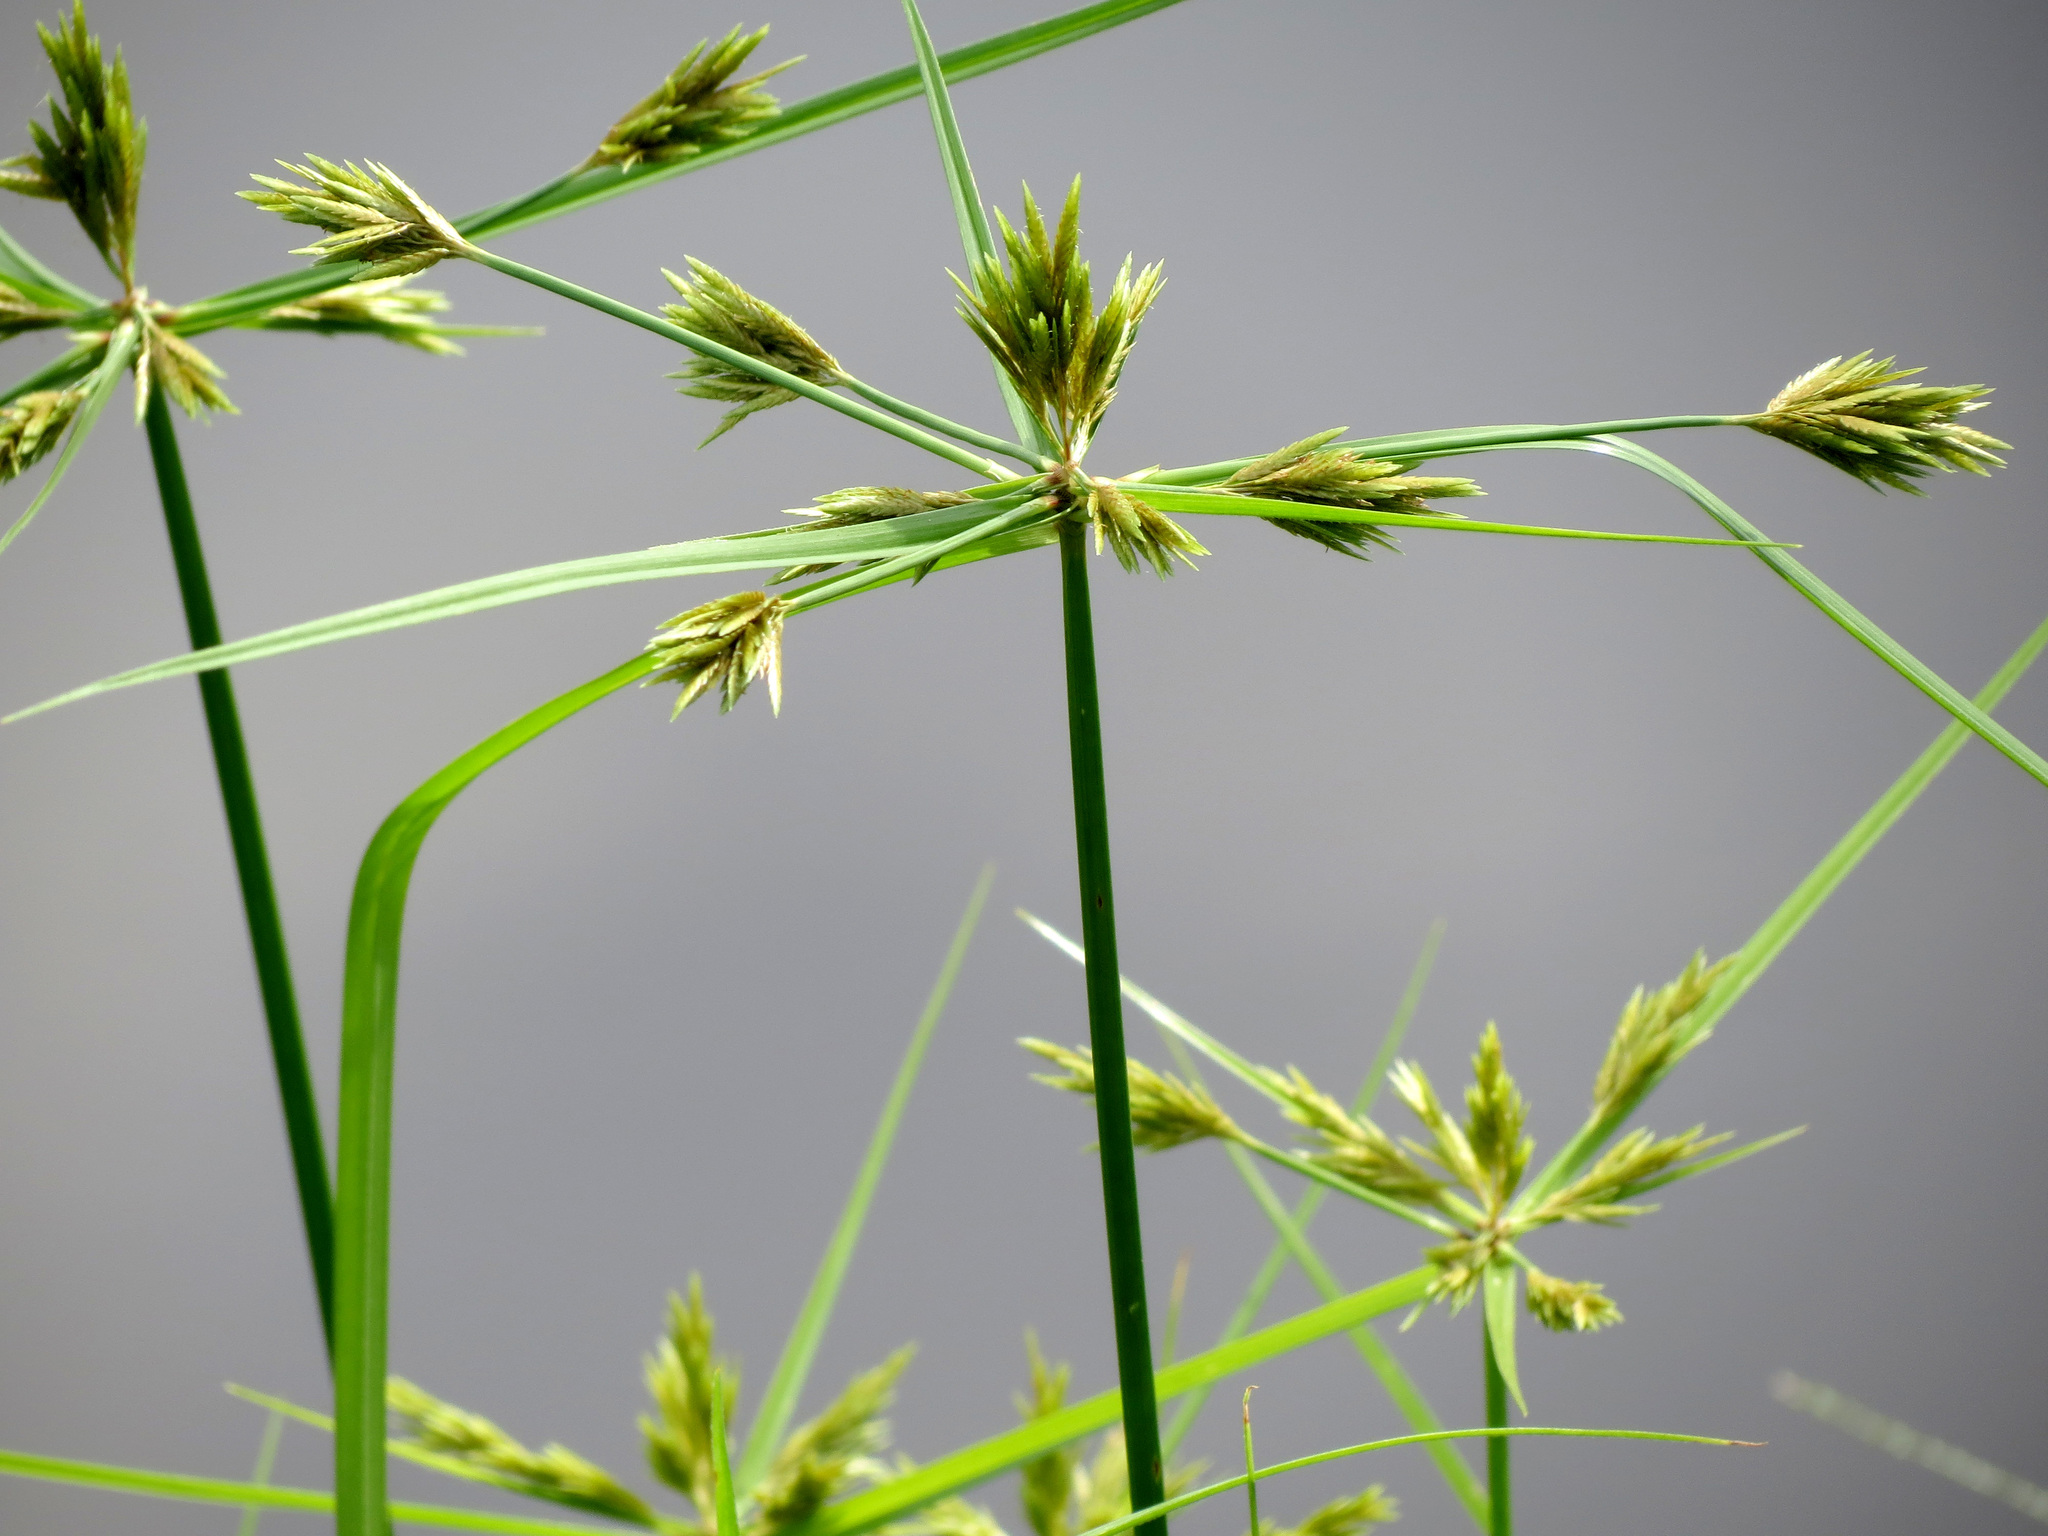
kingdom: Plantae
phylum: Tracheophyta
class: Liliopsida
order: Poales
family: Cyperaceae
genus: Cyperus
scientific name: Cyperus polystachyos
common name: Bunchy flat sedge
